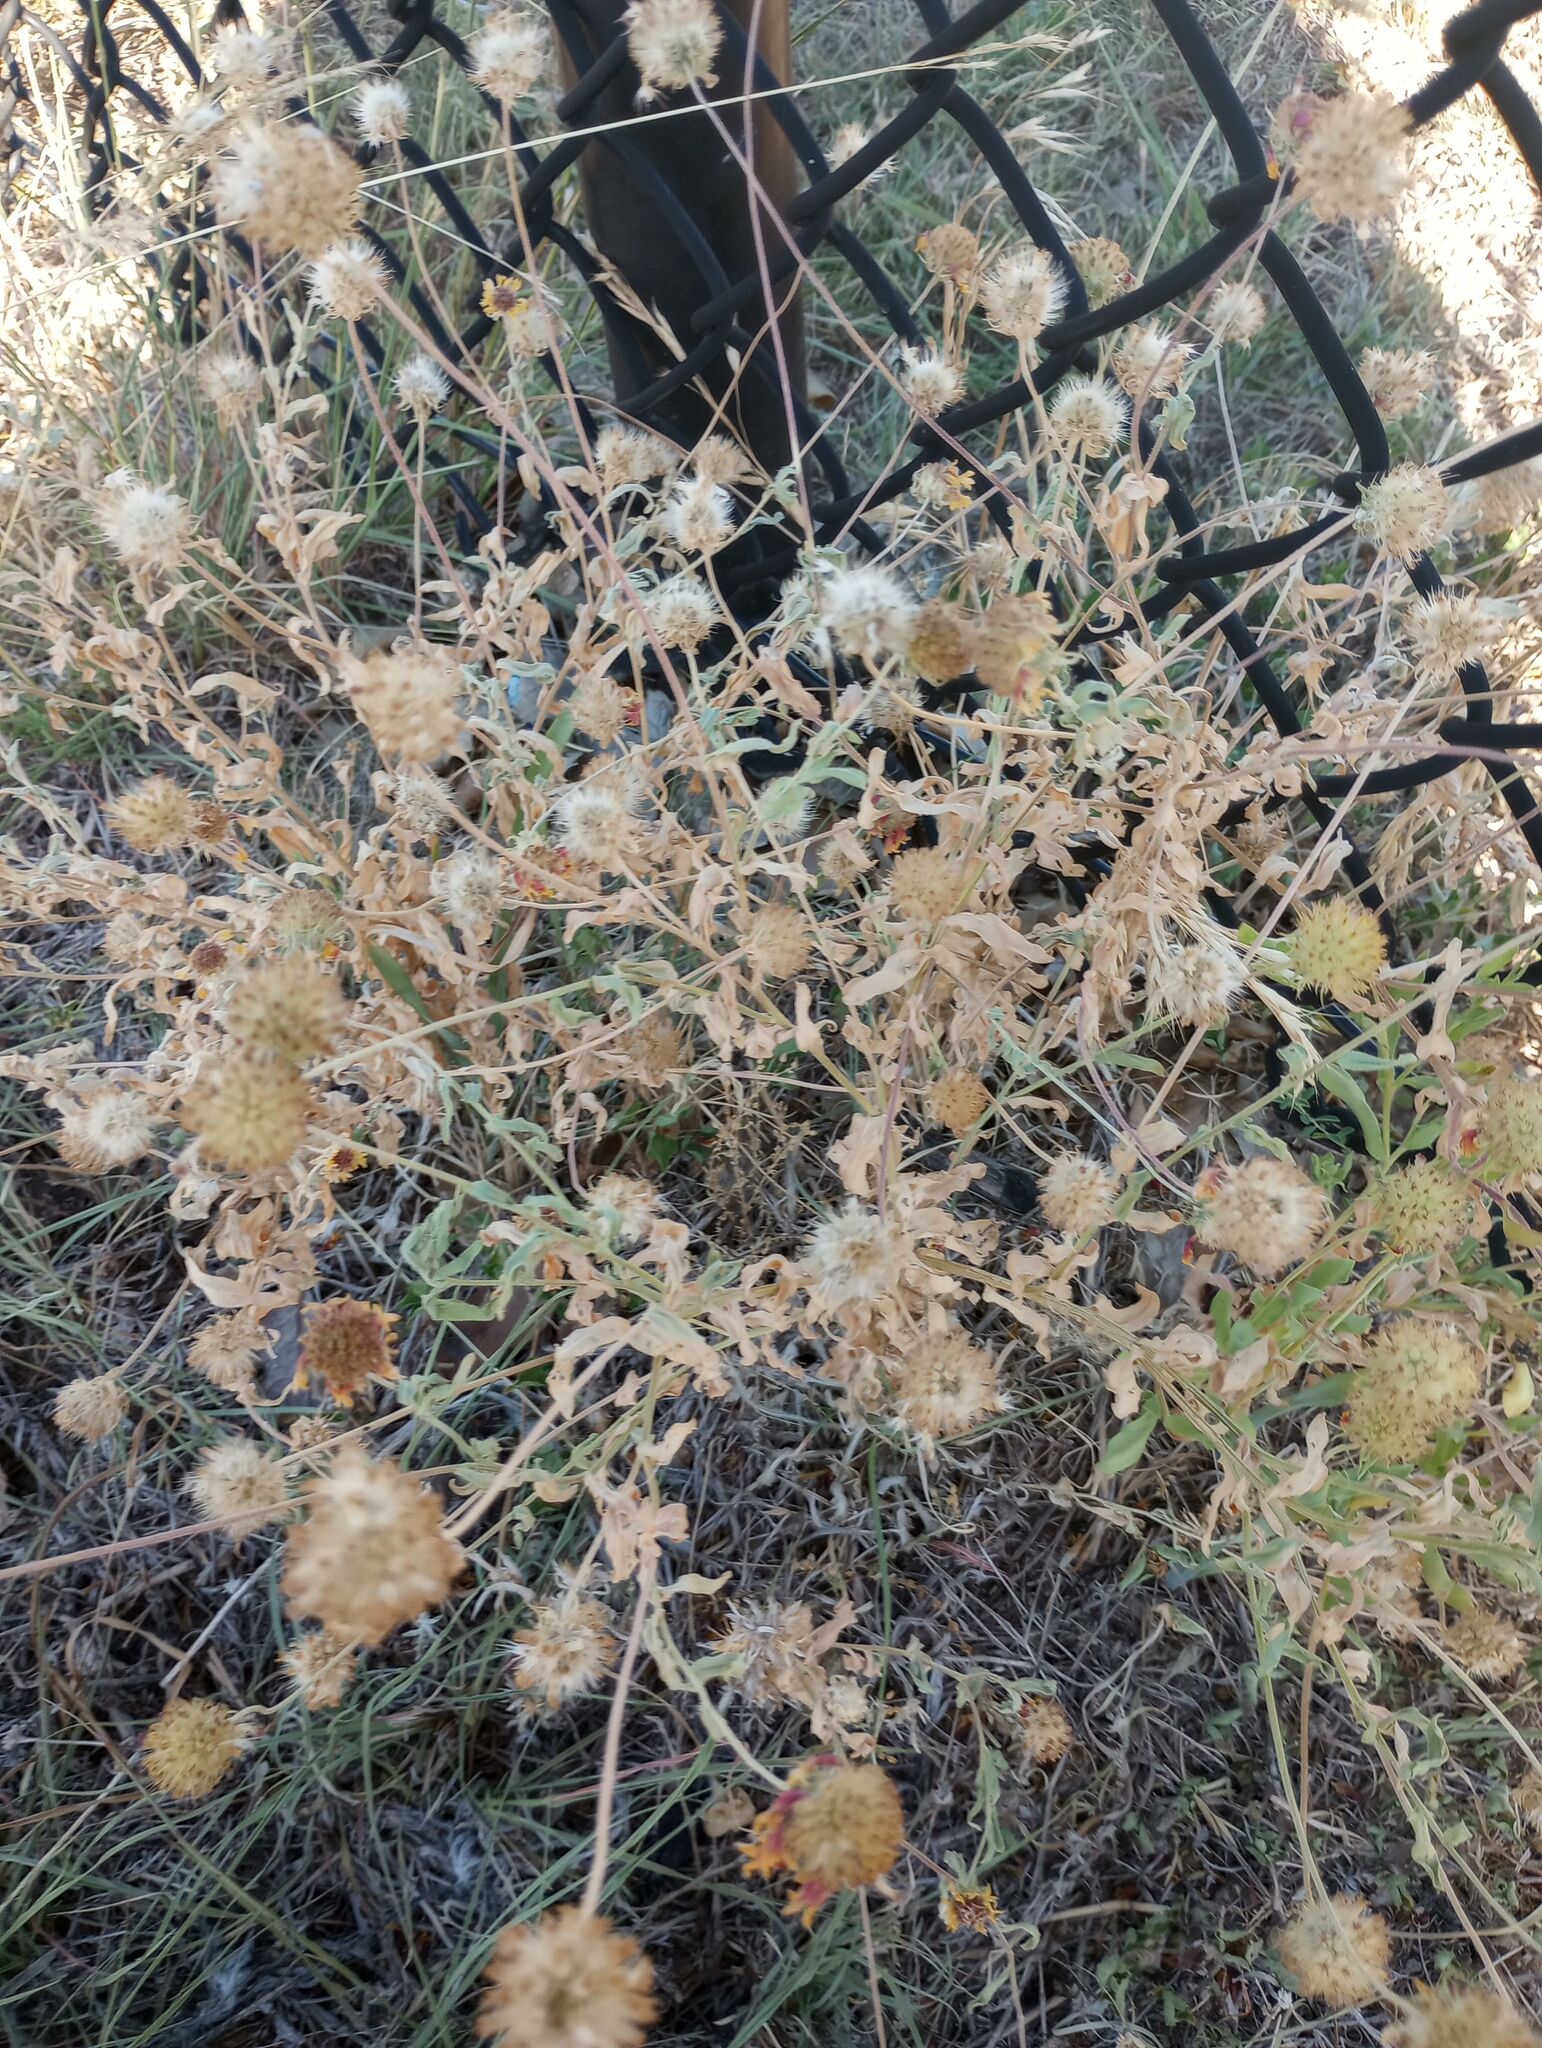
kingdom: Plantae
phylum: Tracheophyta
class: Magnoliopsida
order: Asterales
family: Asteraceae
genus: Gaillardia
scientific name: Gaillardia pulchella
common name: Firewheel
